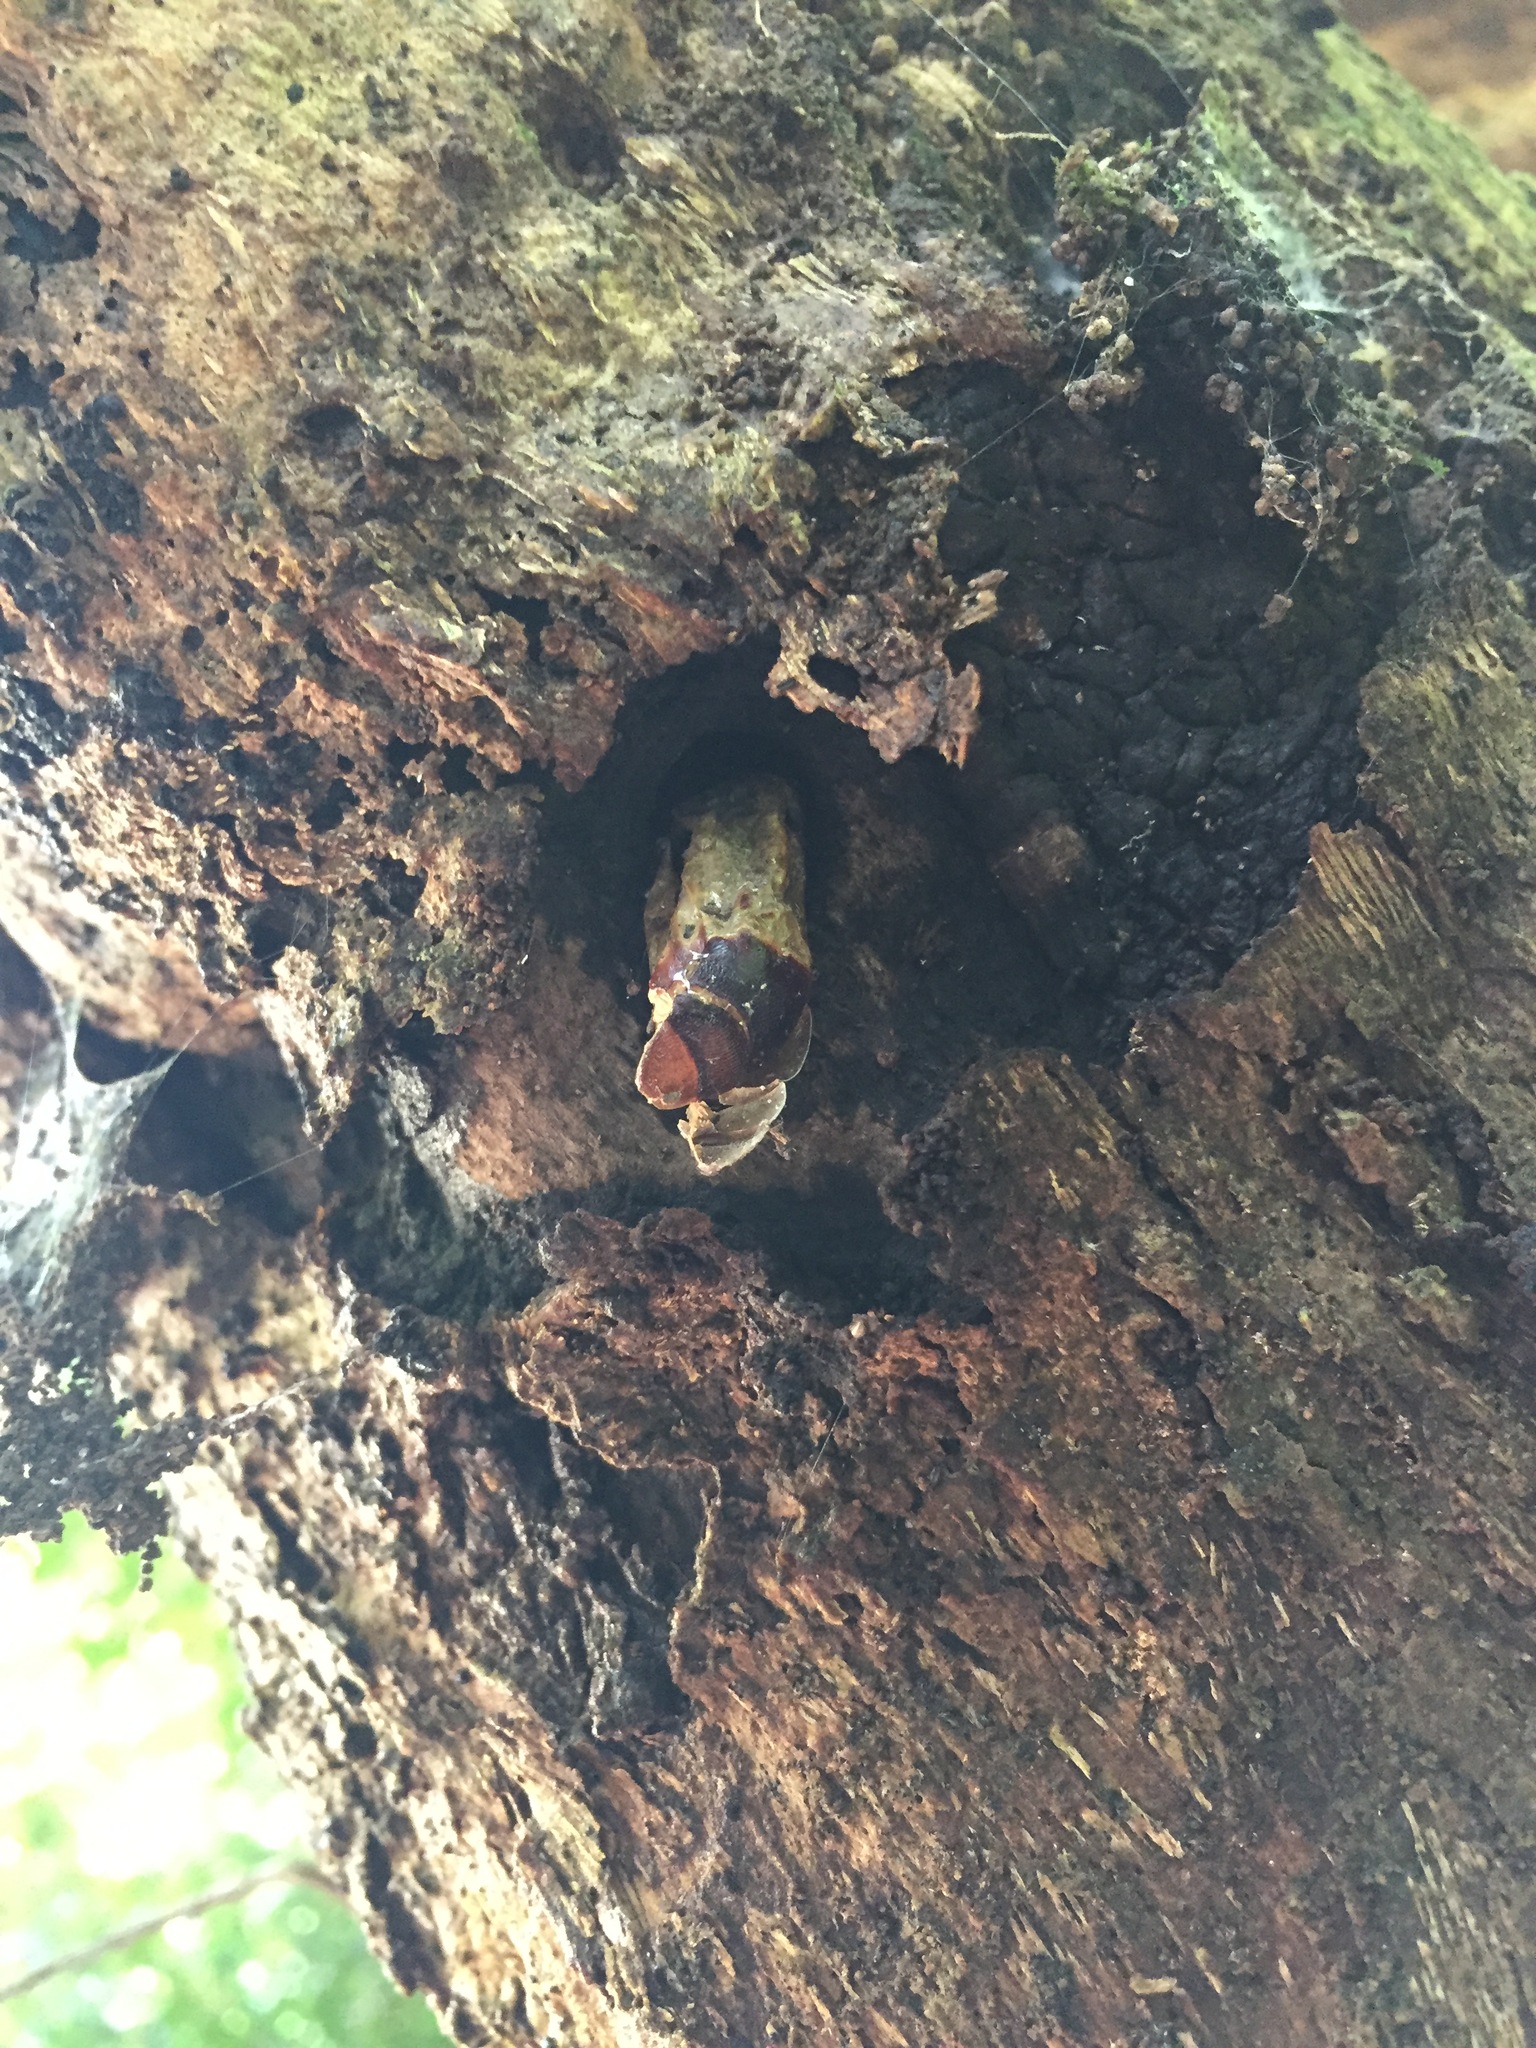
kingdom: Animalia
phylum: Arthropoda
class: Insecta
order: Lepidoptera
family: Hepialidae
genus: Aenetus
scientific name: Aenetus virescens
